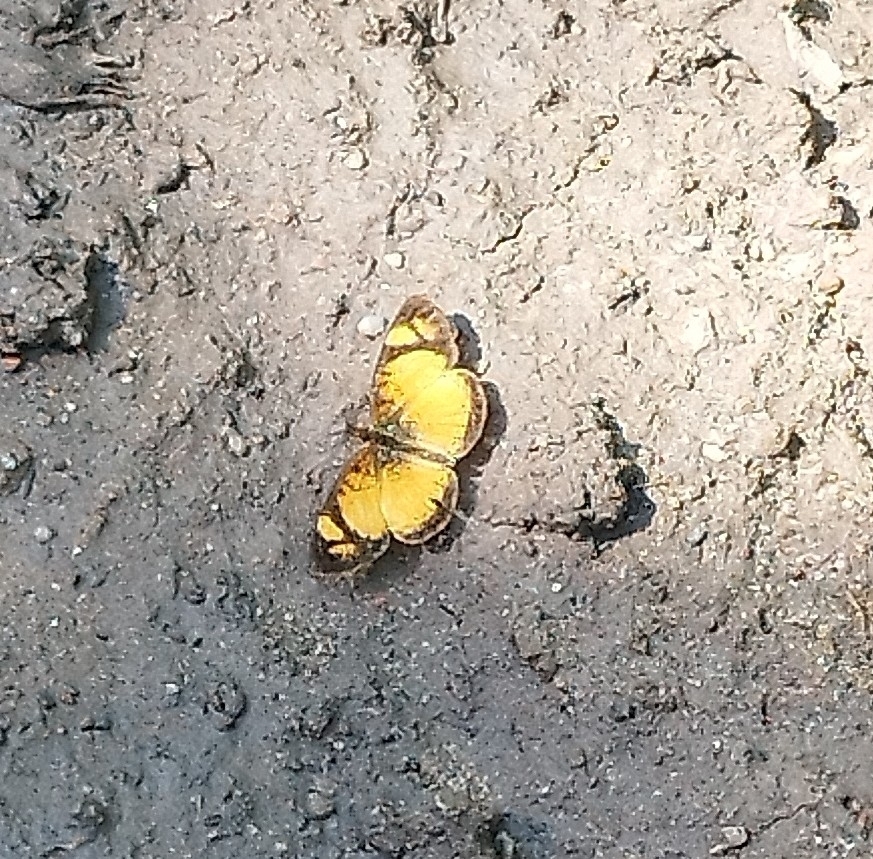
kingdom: Animalia
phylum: Arthropoda
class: Insecta
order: Lepidoptera
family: Nymphalidae
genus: Tegosa
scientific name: Tegosa claudina
